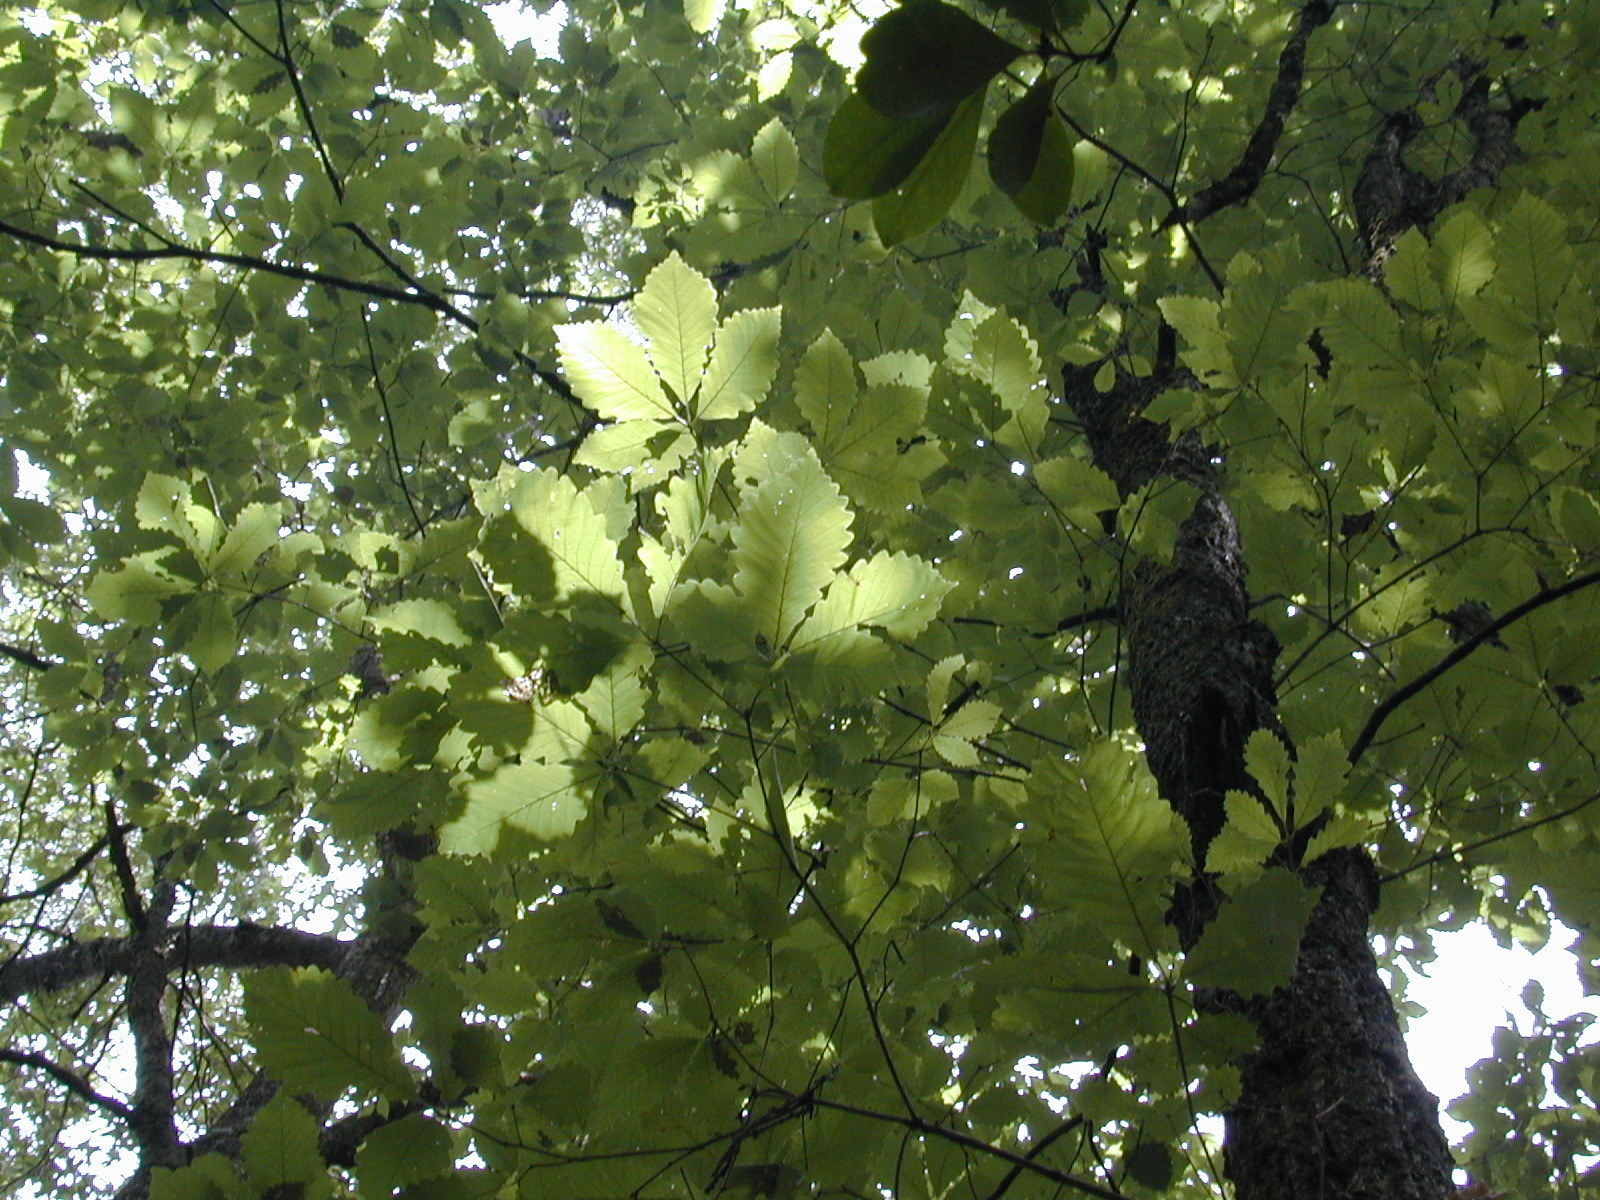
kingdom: Plantae
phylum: Tracheophyta
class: Magnoliopsida
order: Fagales
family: Fagaceae
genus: Quercus
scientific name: Quercus montana
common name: Chestnut oak
